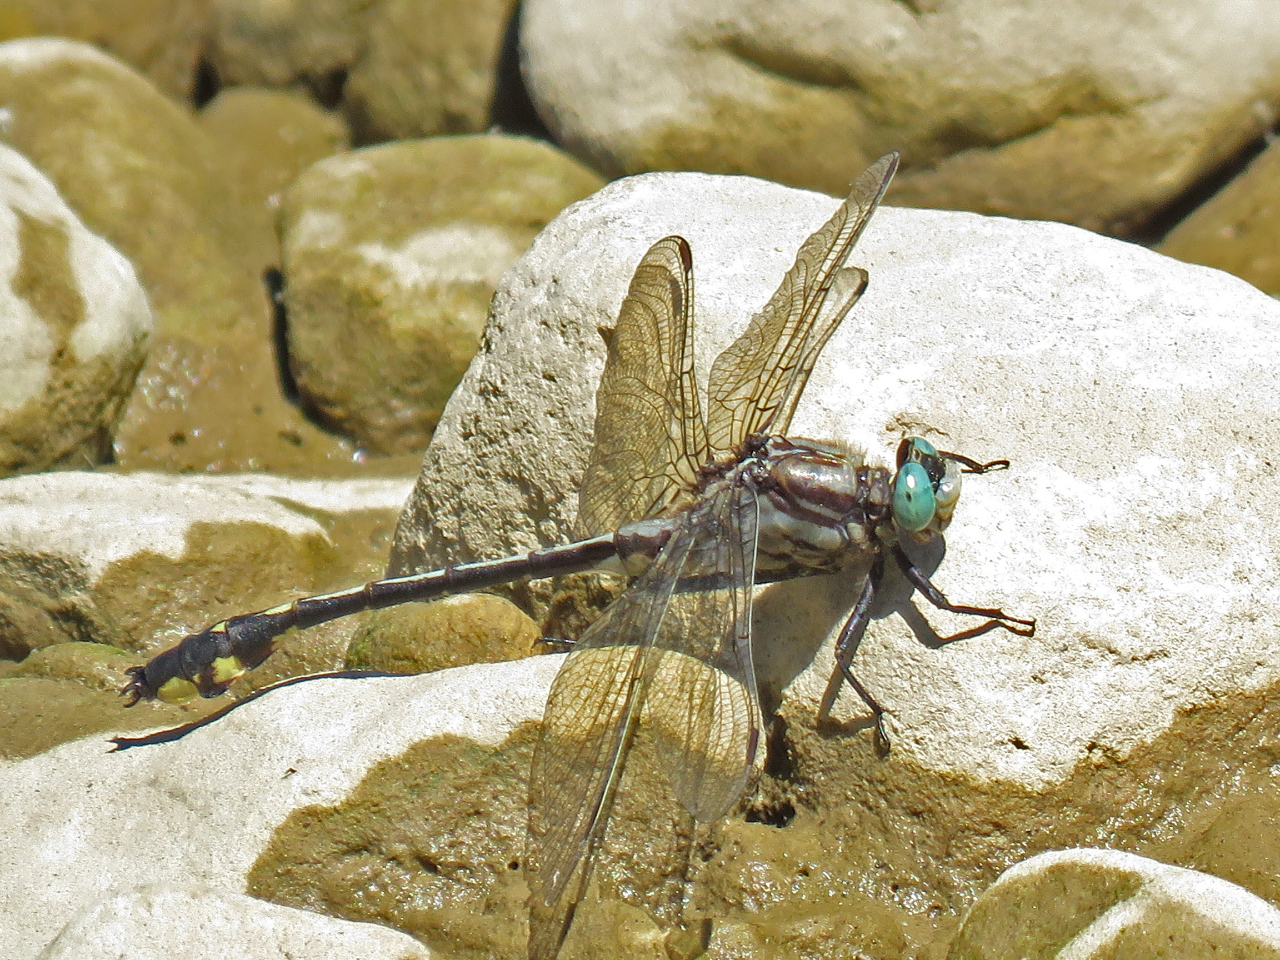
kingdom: Animalia
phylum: Arthropoda
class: Insecta
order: Odonata
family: Gomphidae
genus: Gomphurus
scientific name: Gomphurus fraternus
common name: Midland clubtail
